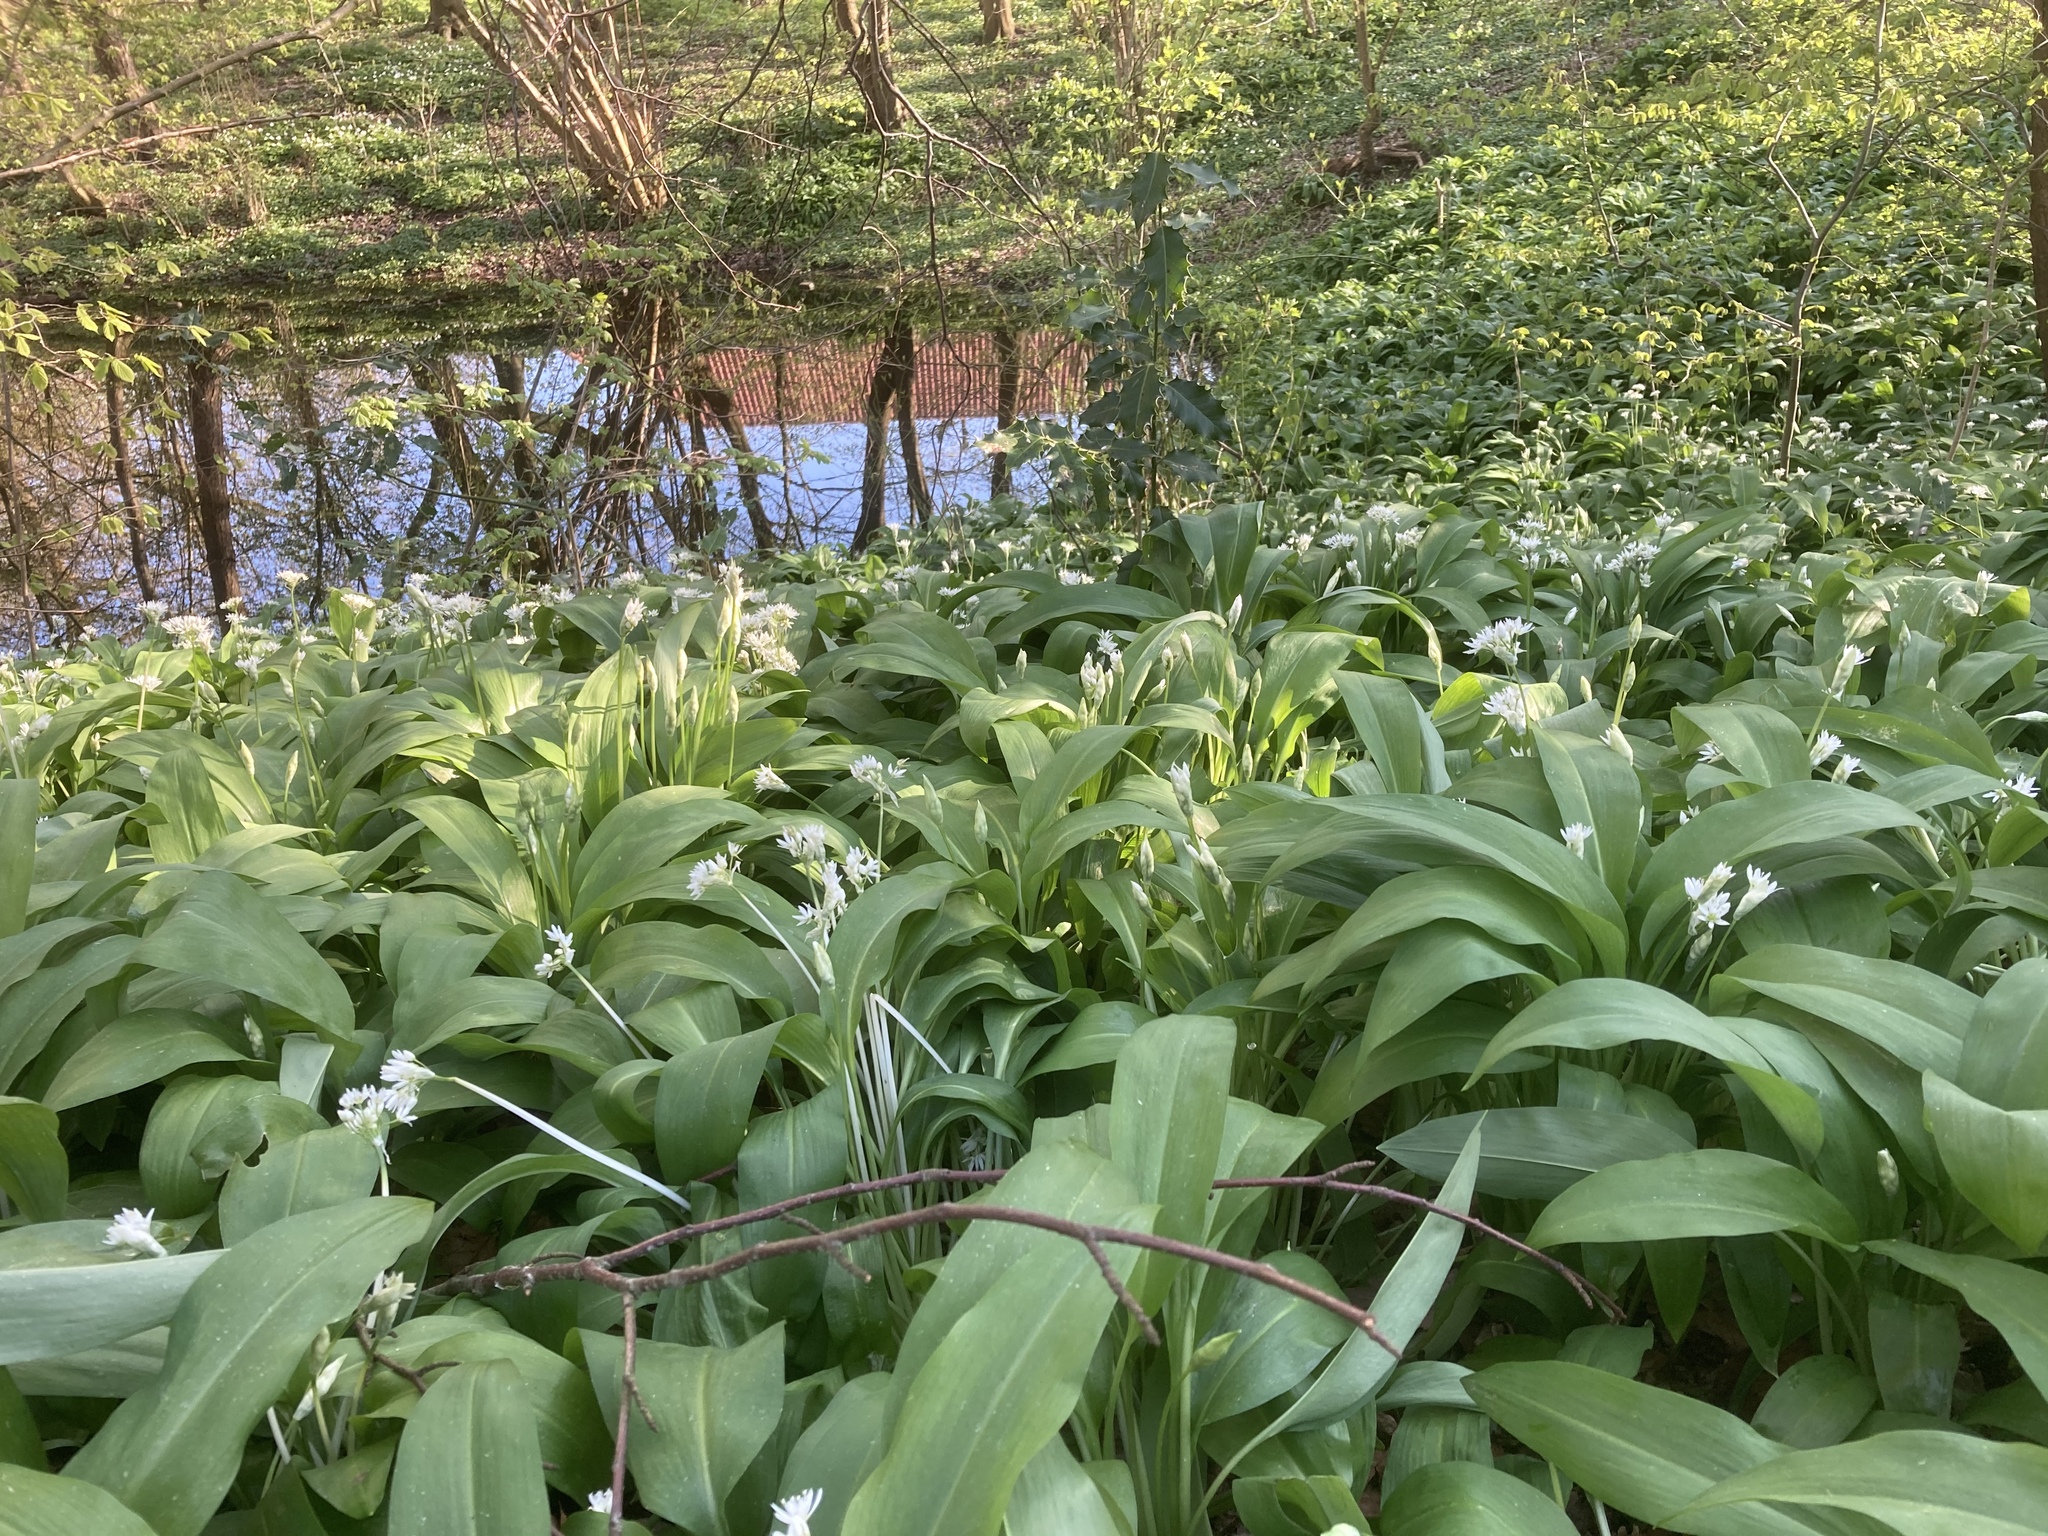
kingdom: Plantae
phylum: Tracheophyta
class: Liliopsida
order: Asparagales
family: Amaryllidaceae
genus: Allium
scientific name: Allium ursinum
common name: Ramsons
